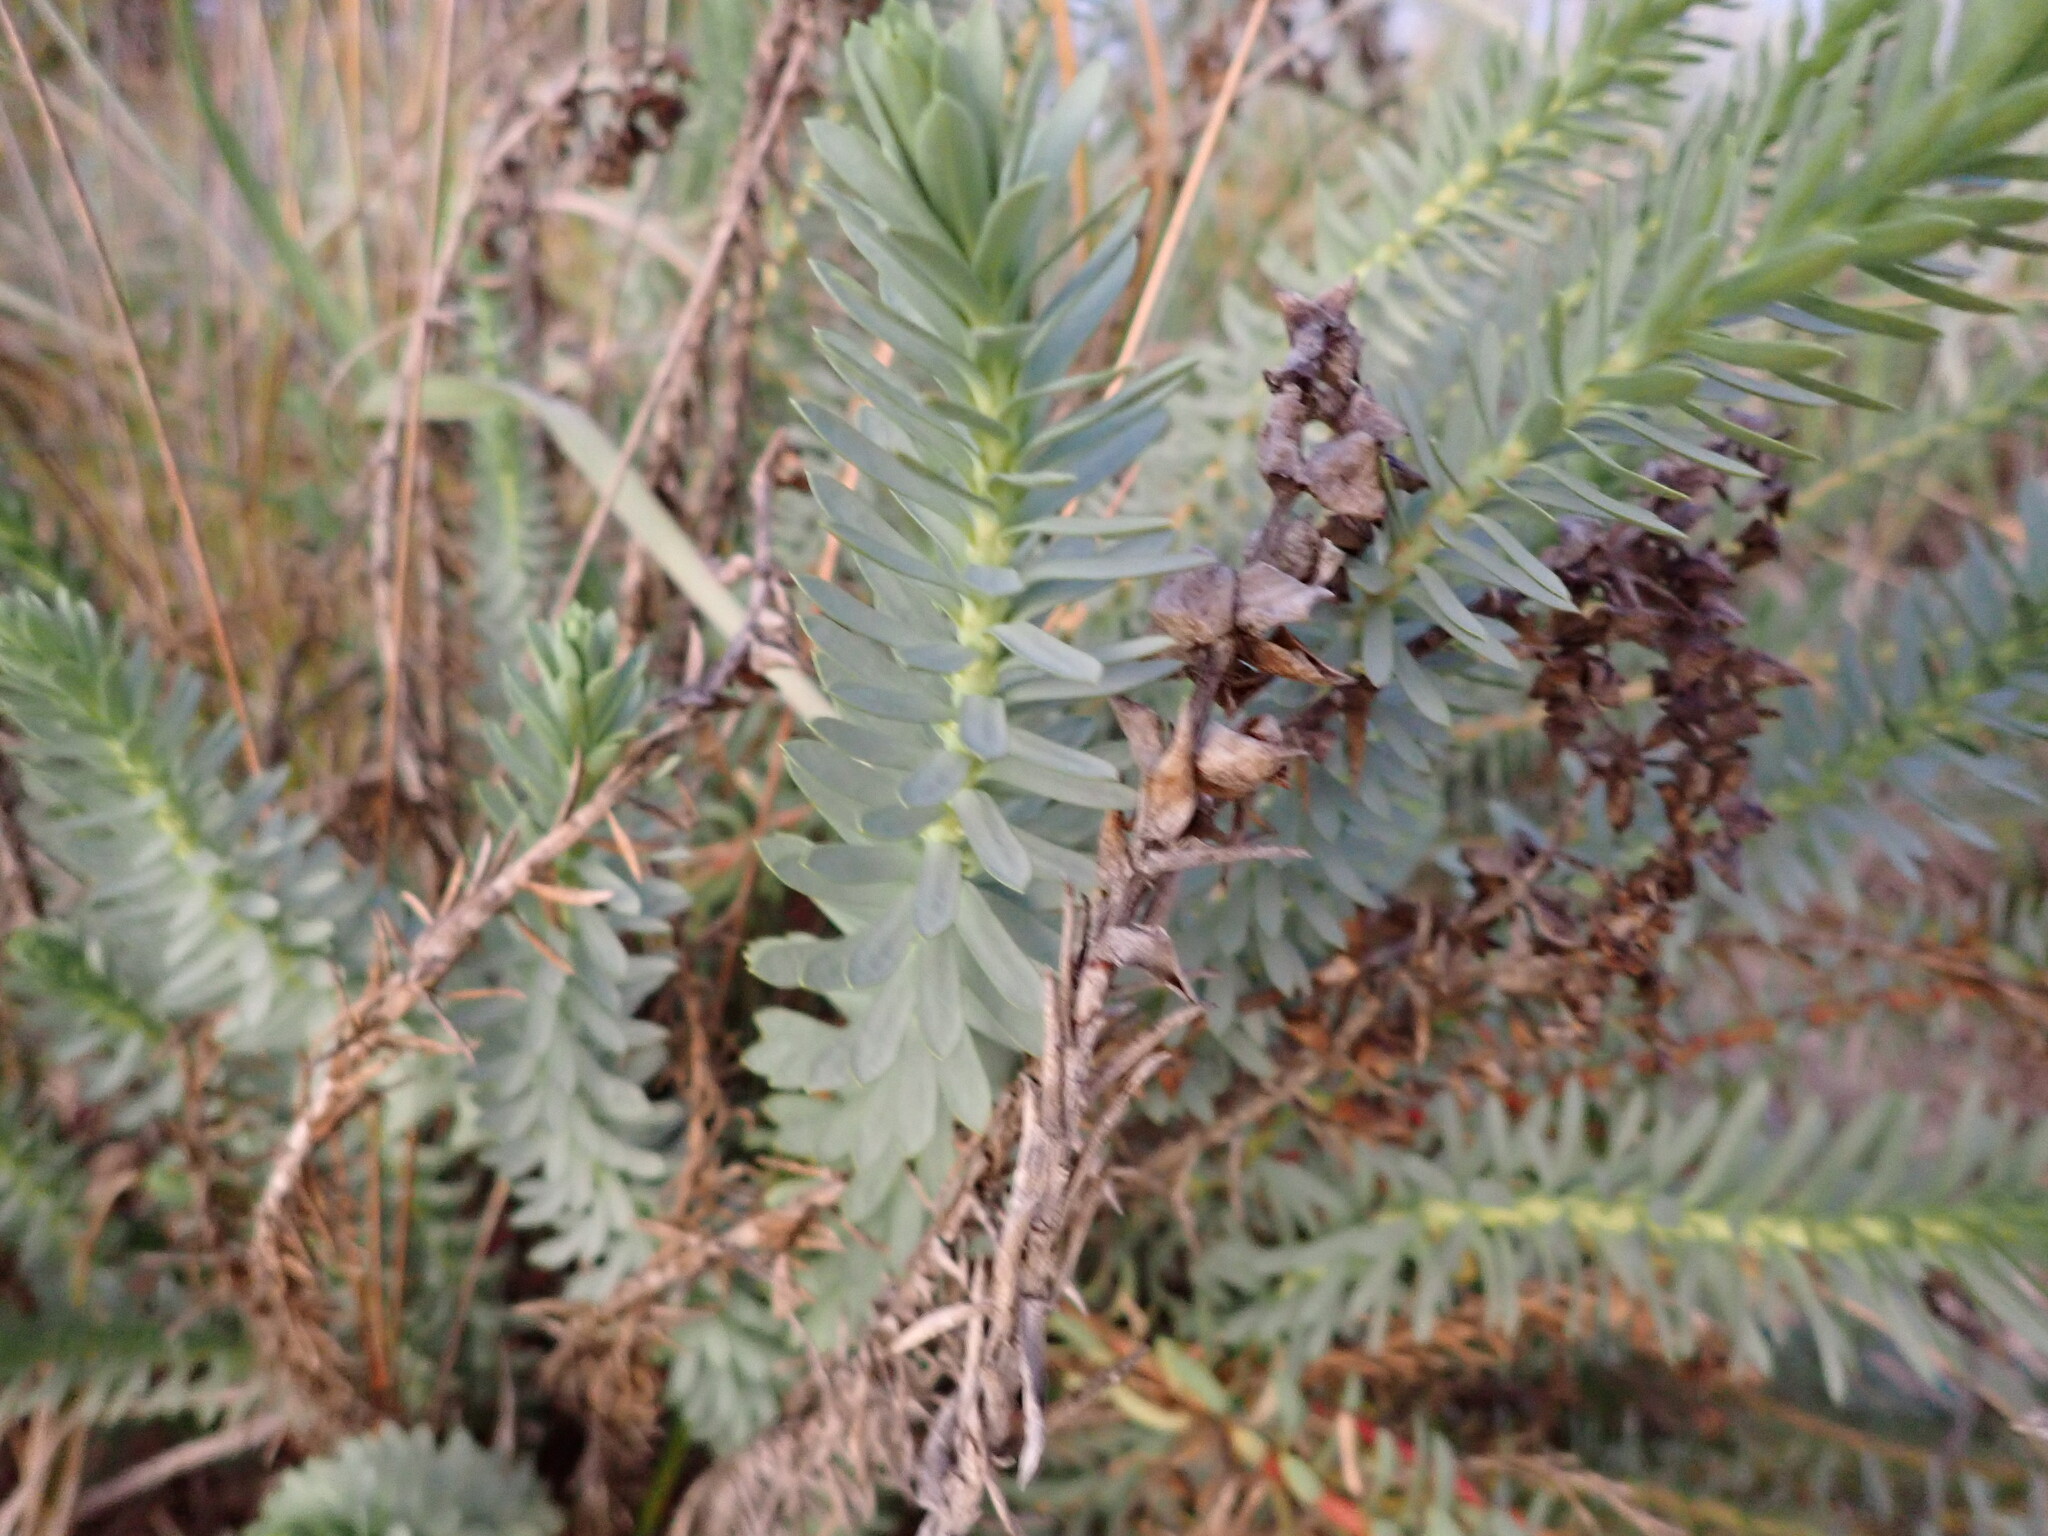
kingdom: Plantae
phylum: Tracheophyta
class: Magnoliopsida
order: Malpighiales
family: Euphorbiaceae
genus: Euphorbia
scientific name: Euphorbia paralias
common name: Sea spurge
